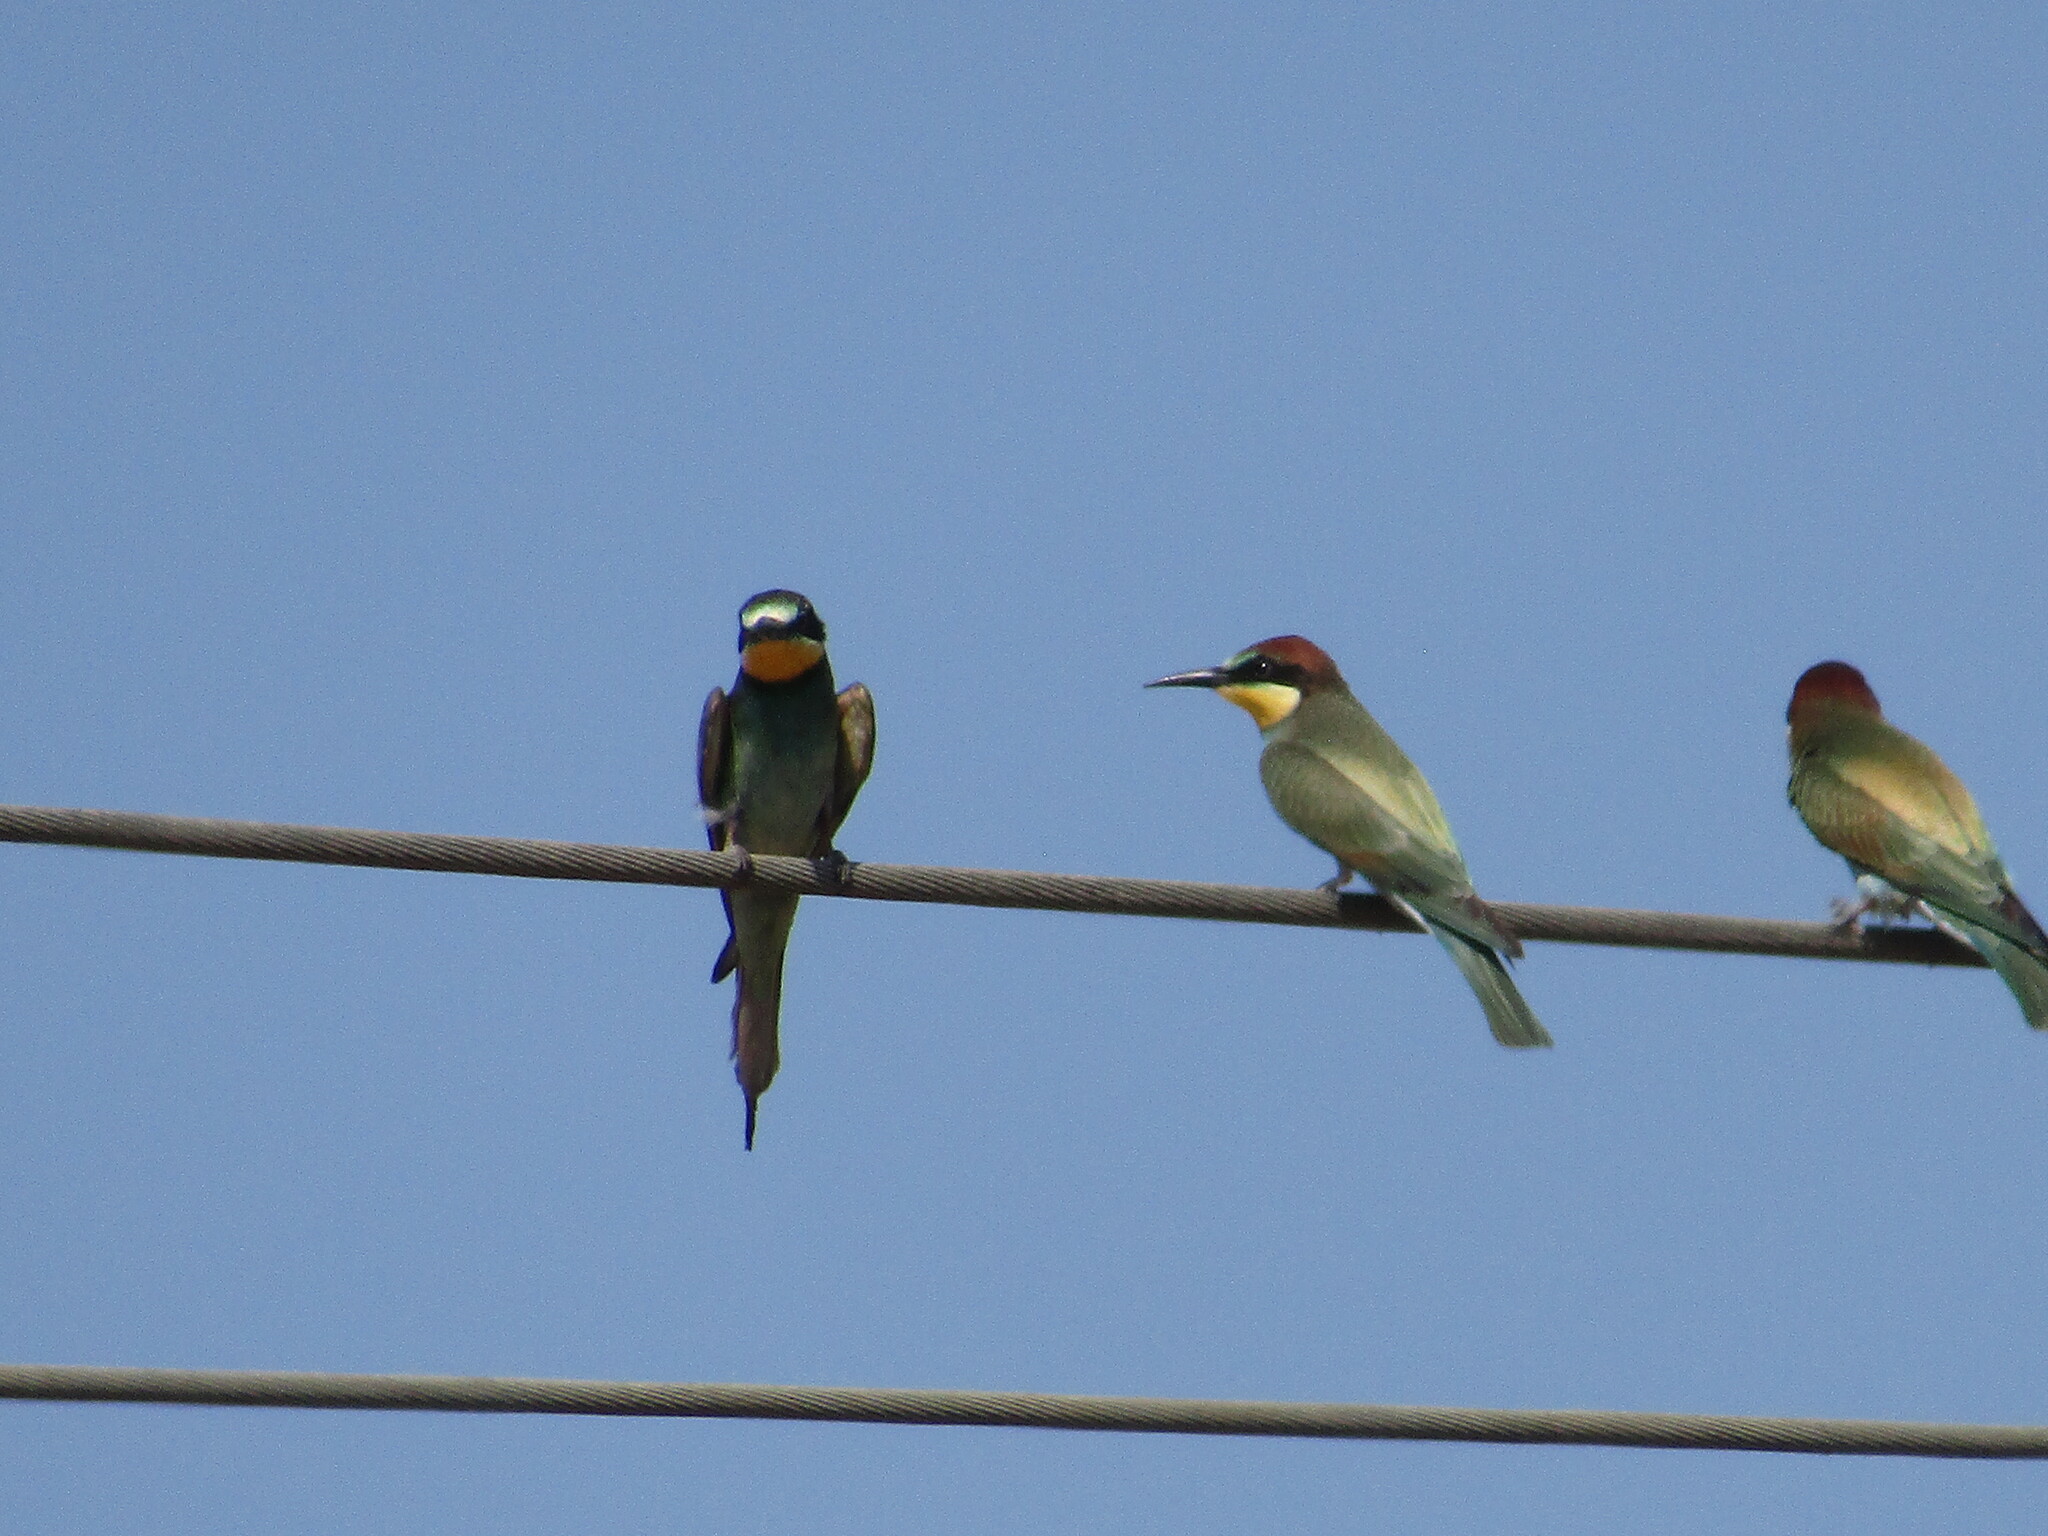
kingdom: Animalia
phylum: Chordata
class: Aves
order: Coraciiformes
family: Meropidae
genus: Merops
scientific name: Merops apiaster
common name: European bee-eater
